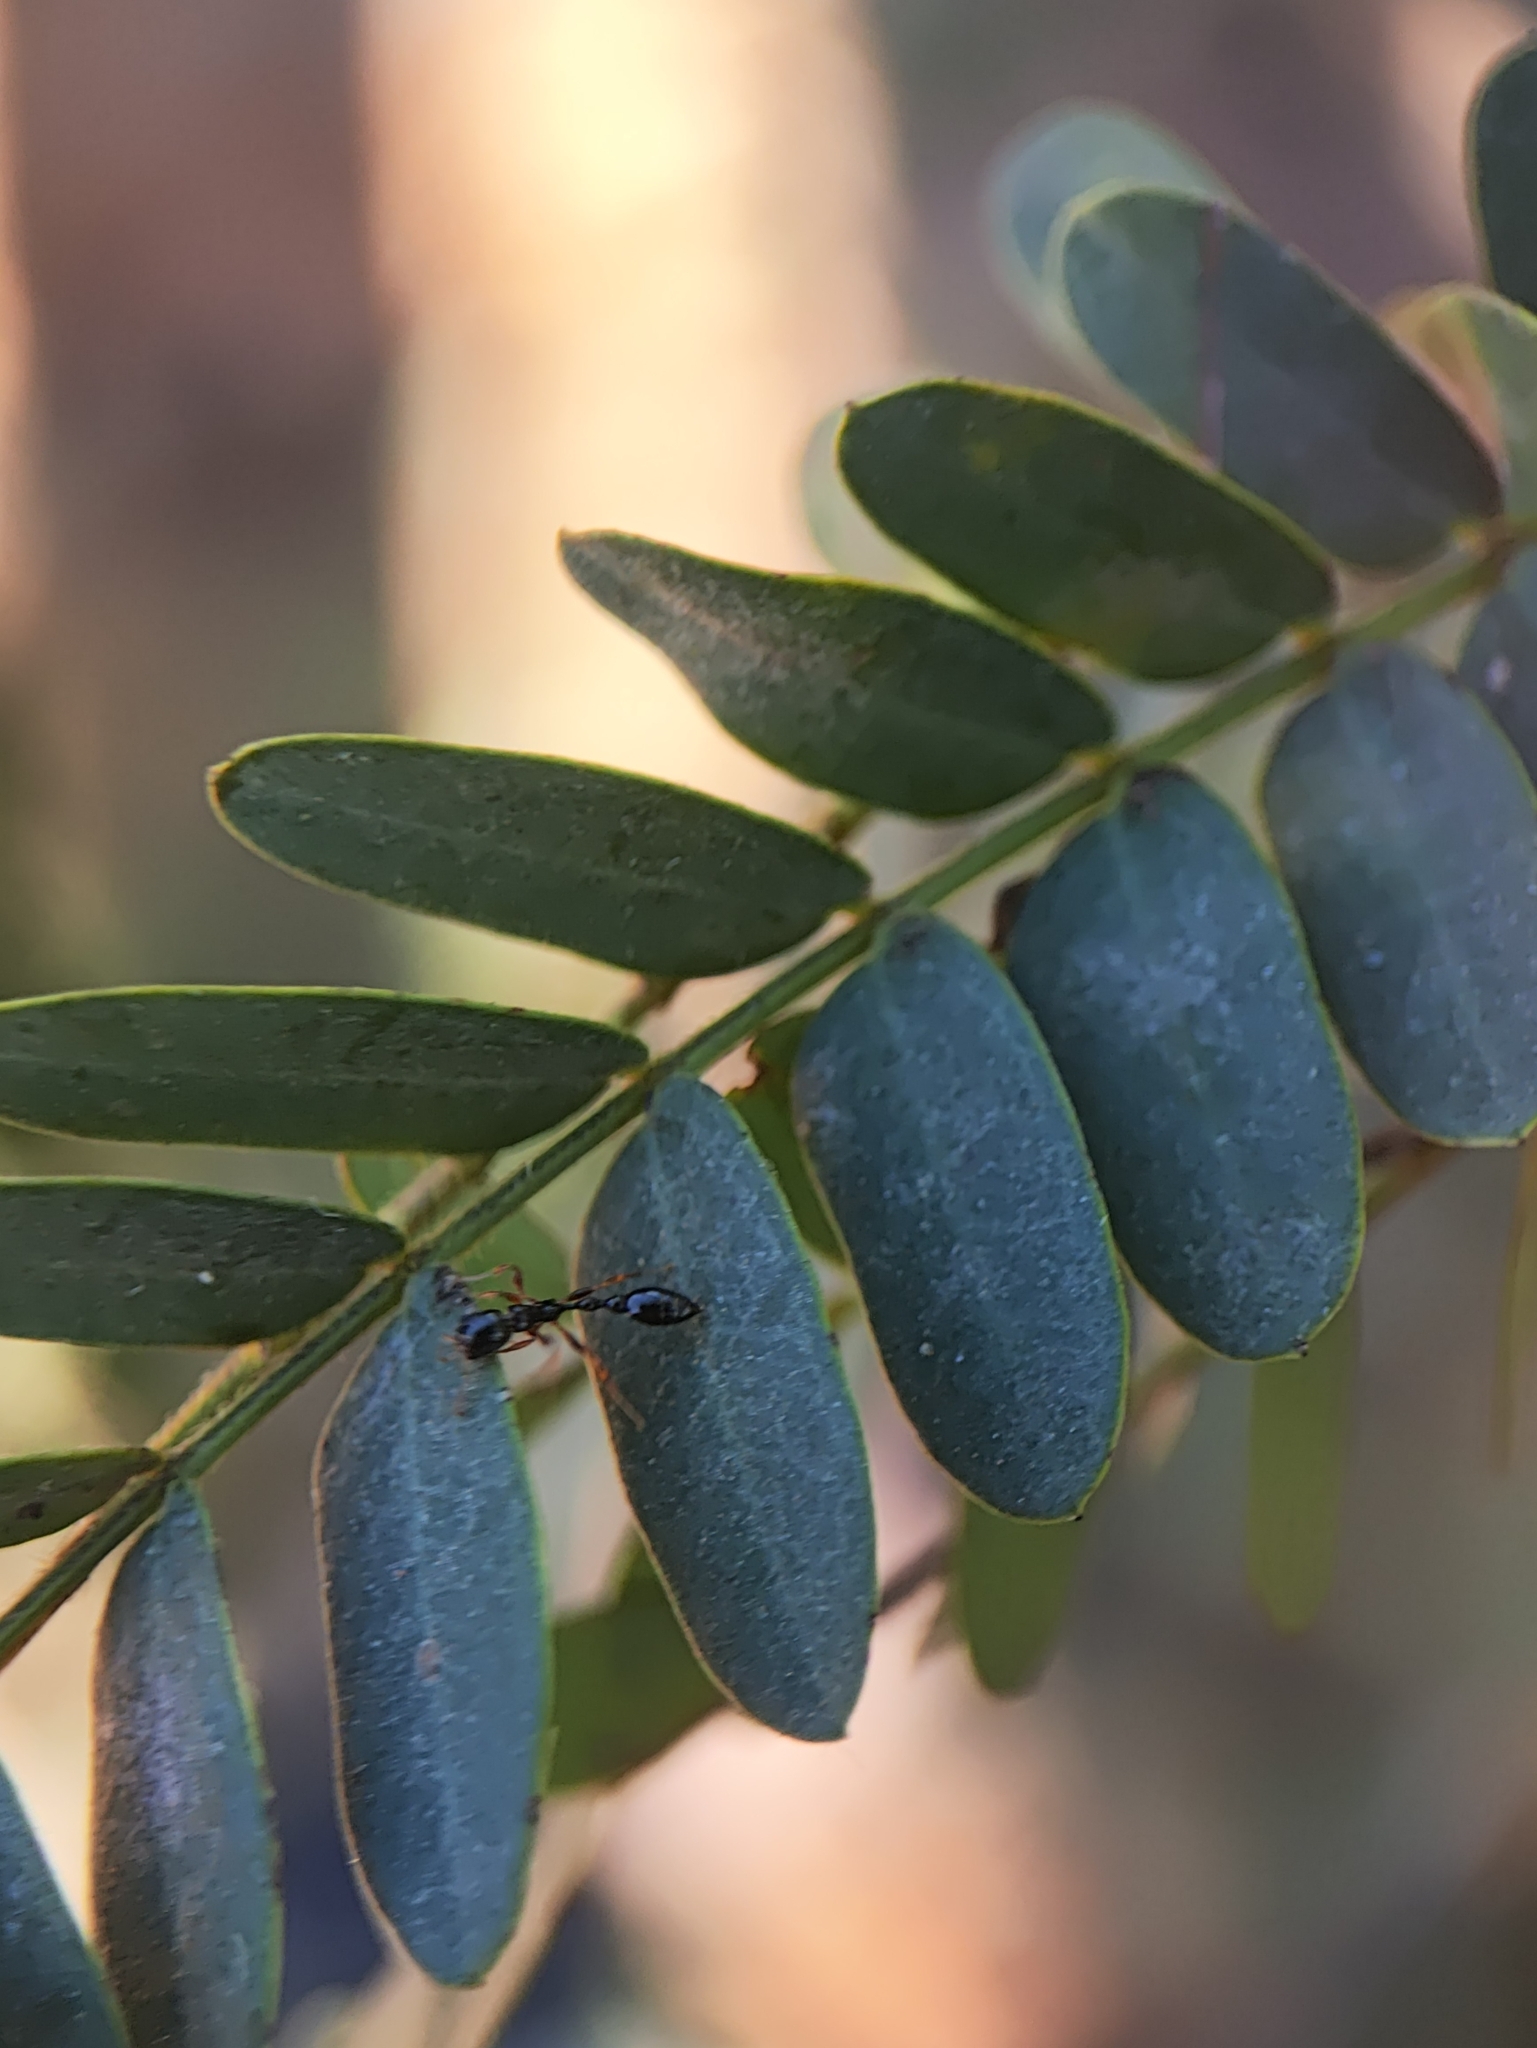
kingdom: Animalia
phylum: Arthropoda
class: Insecta
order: Hymenoptera
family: Formicidae
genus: Tetraponera
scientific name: Tetraponera allaborans
